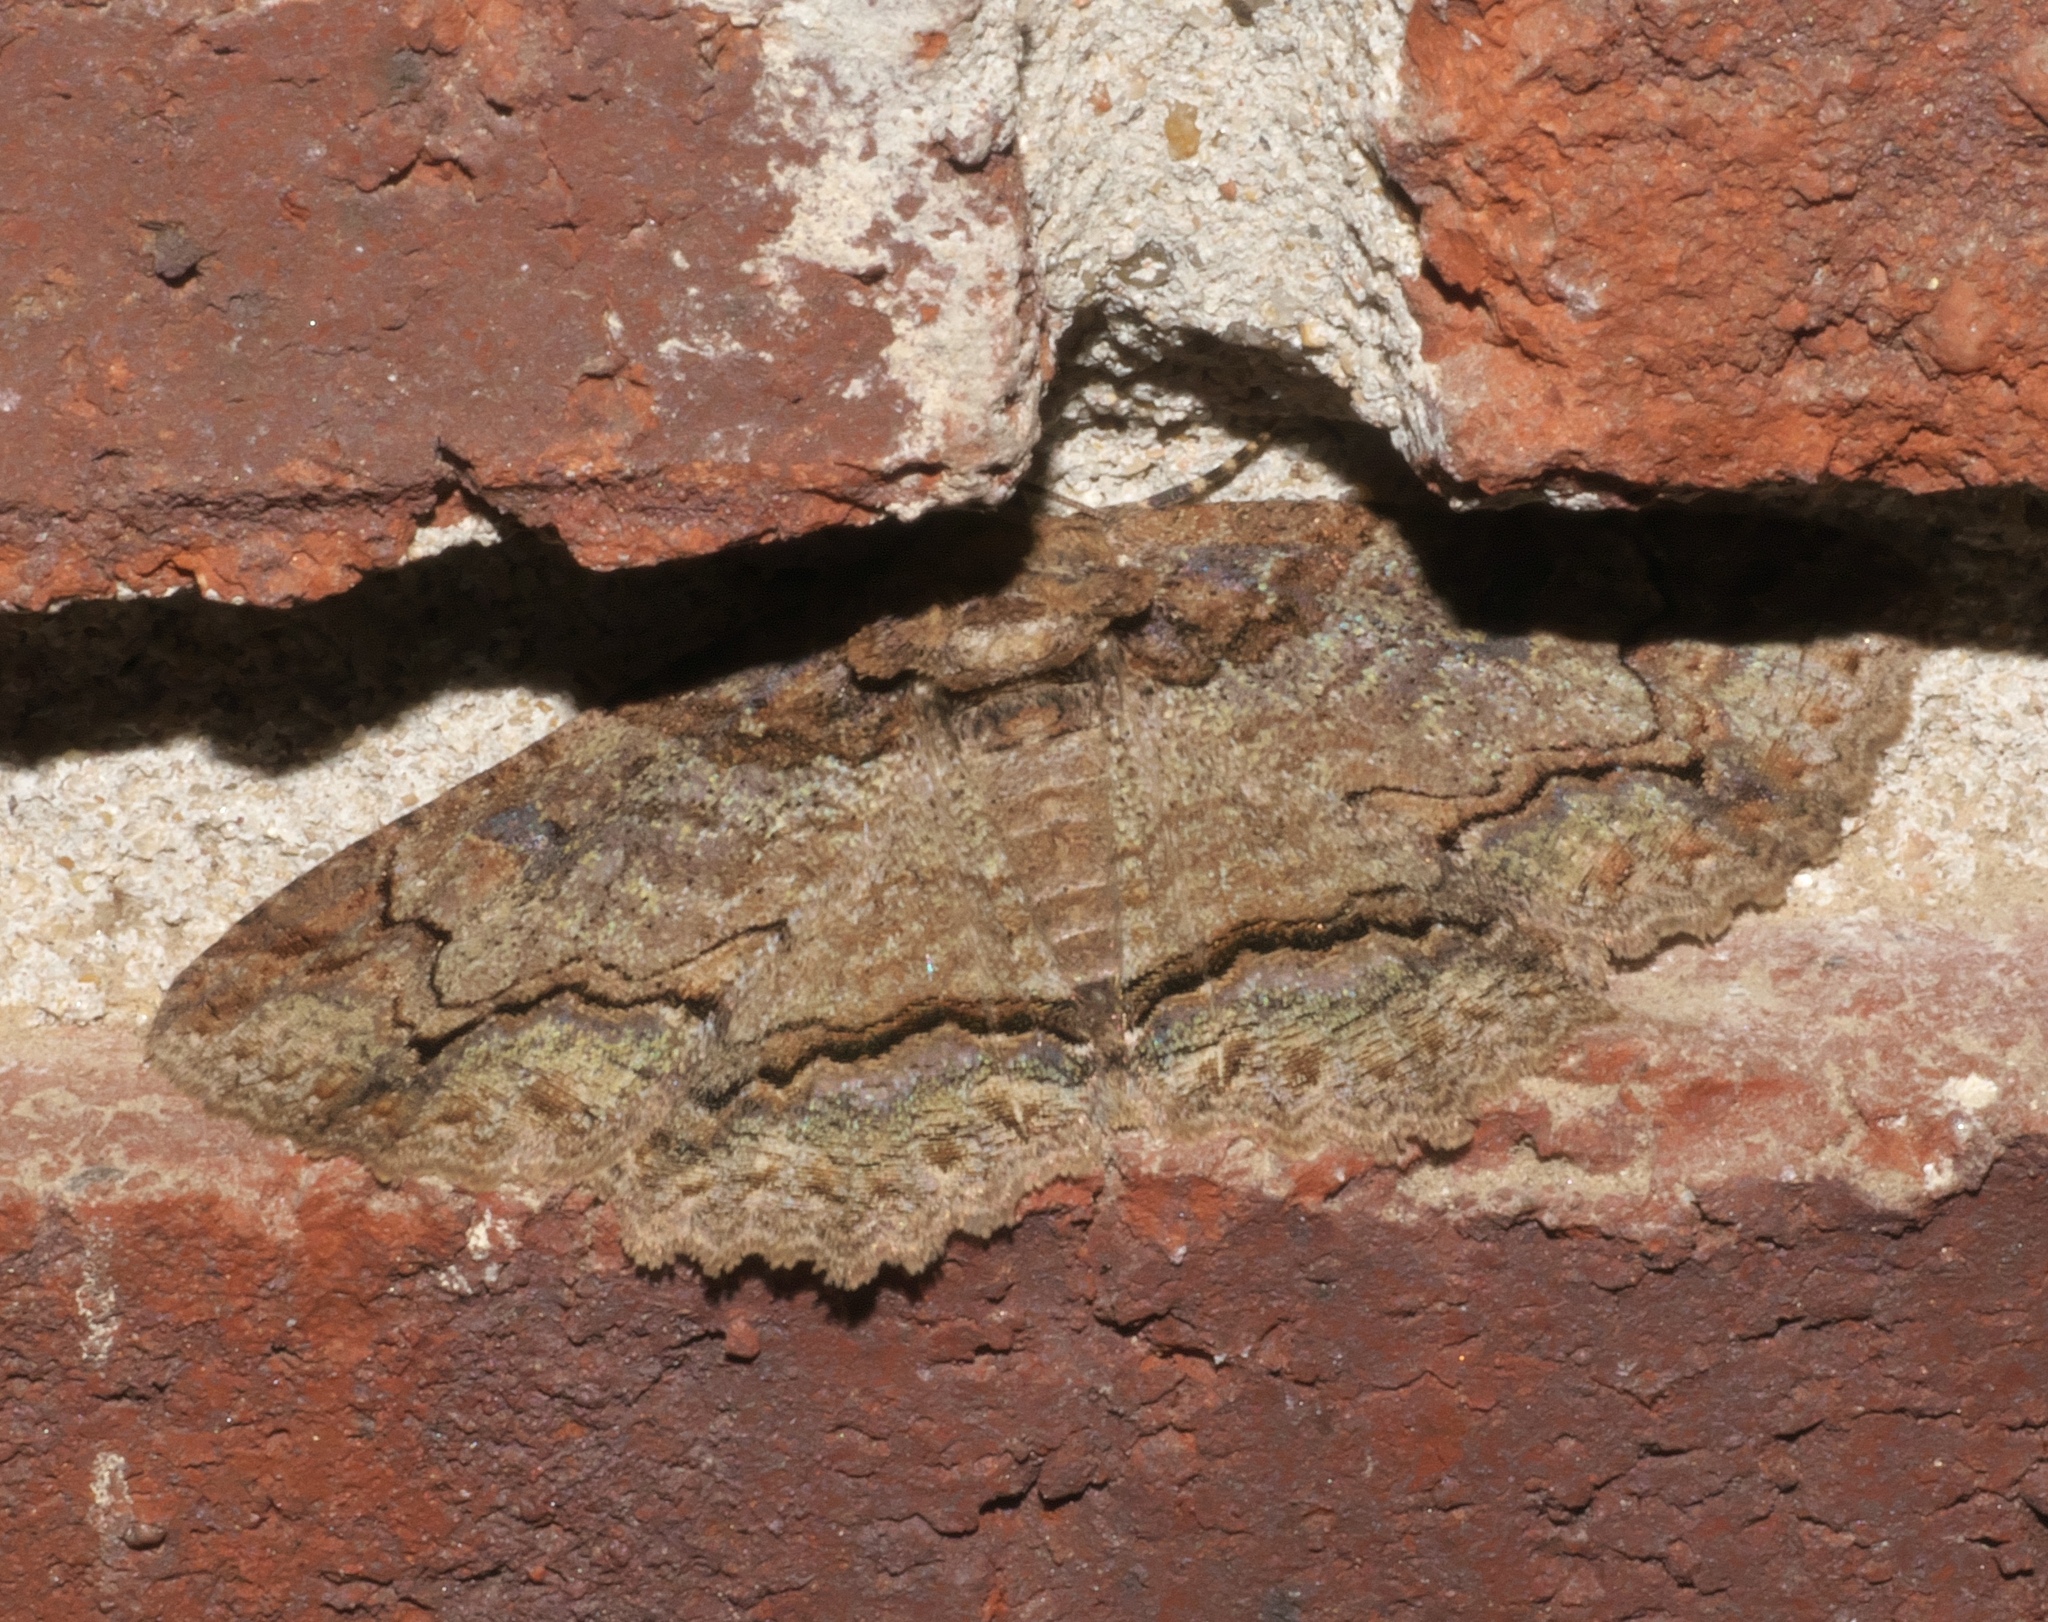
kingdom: Animalia
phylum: Arthropoda
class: Insecta
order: Lepidoptera
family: Erebidae
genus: Zale
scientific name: Zale galbanata
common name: Maple zale
